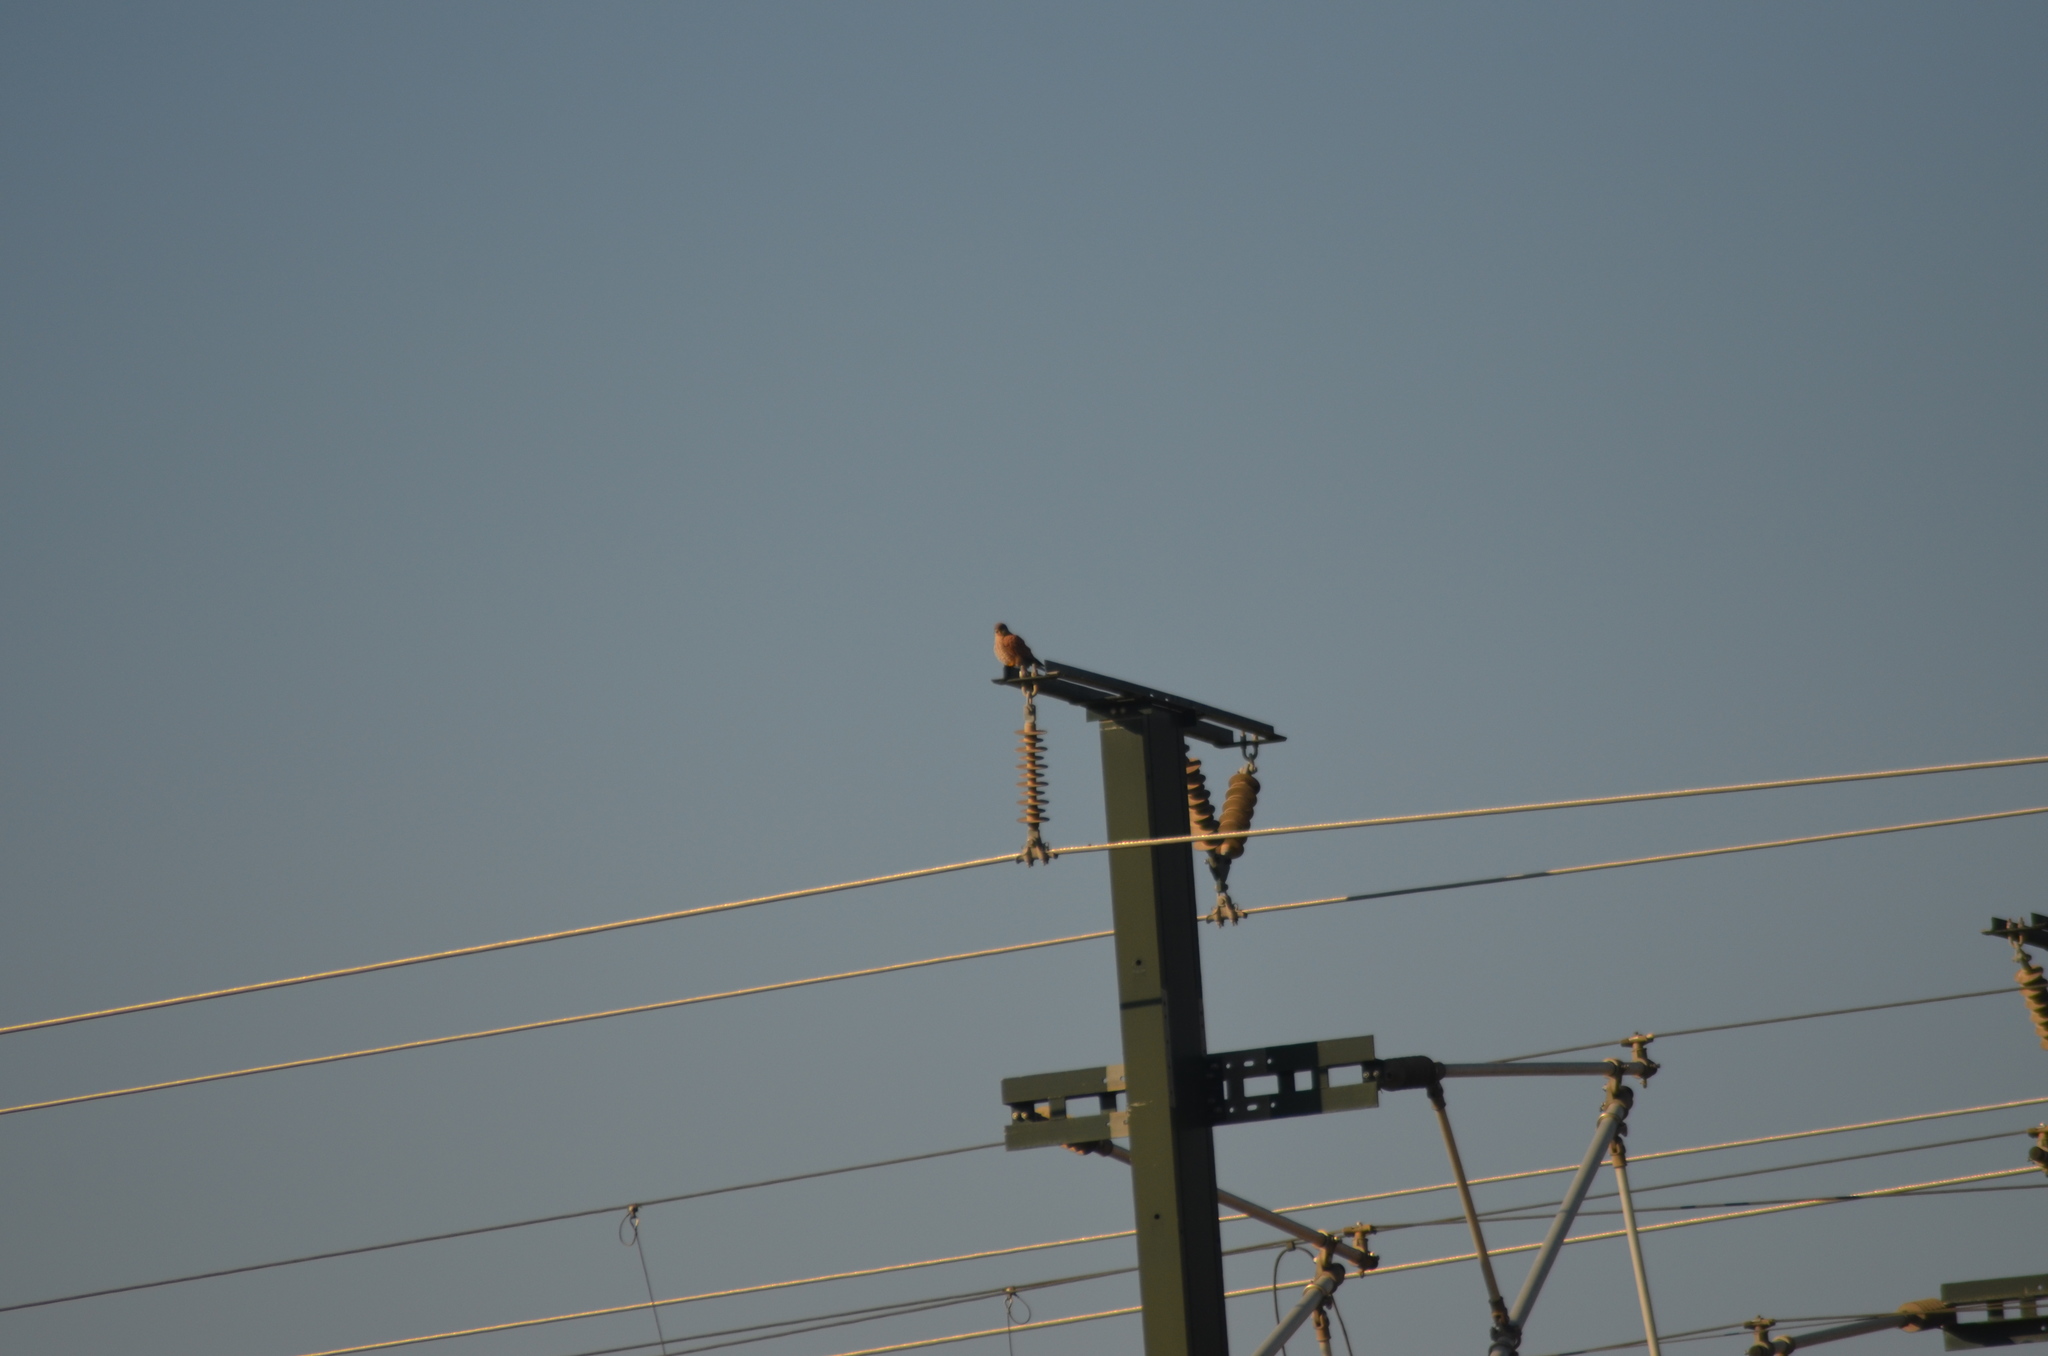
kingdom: Animalia
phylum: Chordata
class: Aves
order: Falconiformes
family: Falconidae
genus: Falco
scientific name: Falco tinnunculus
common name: Common kestrel
